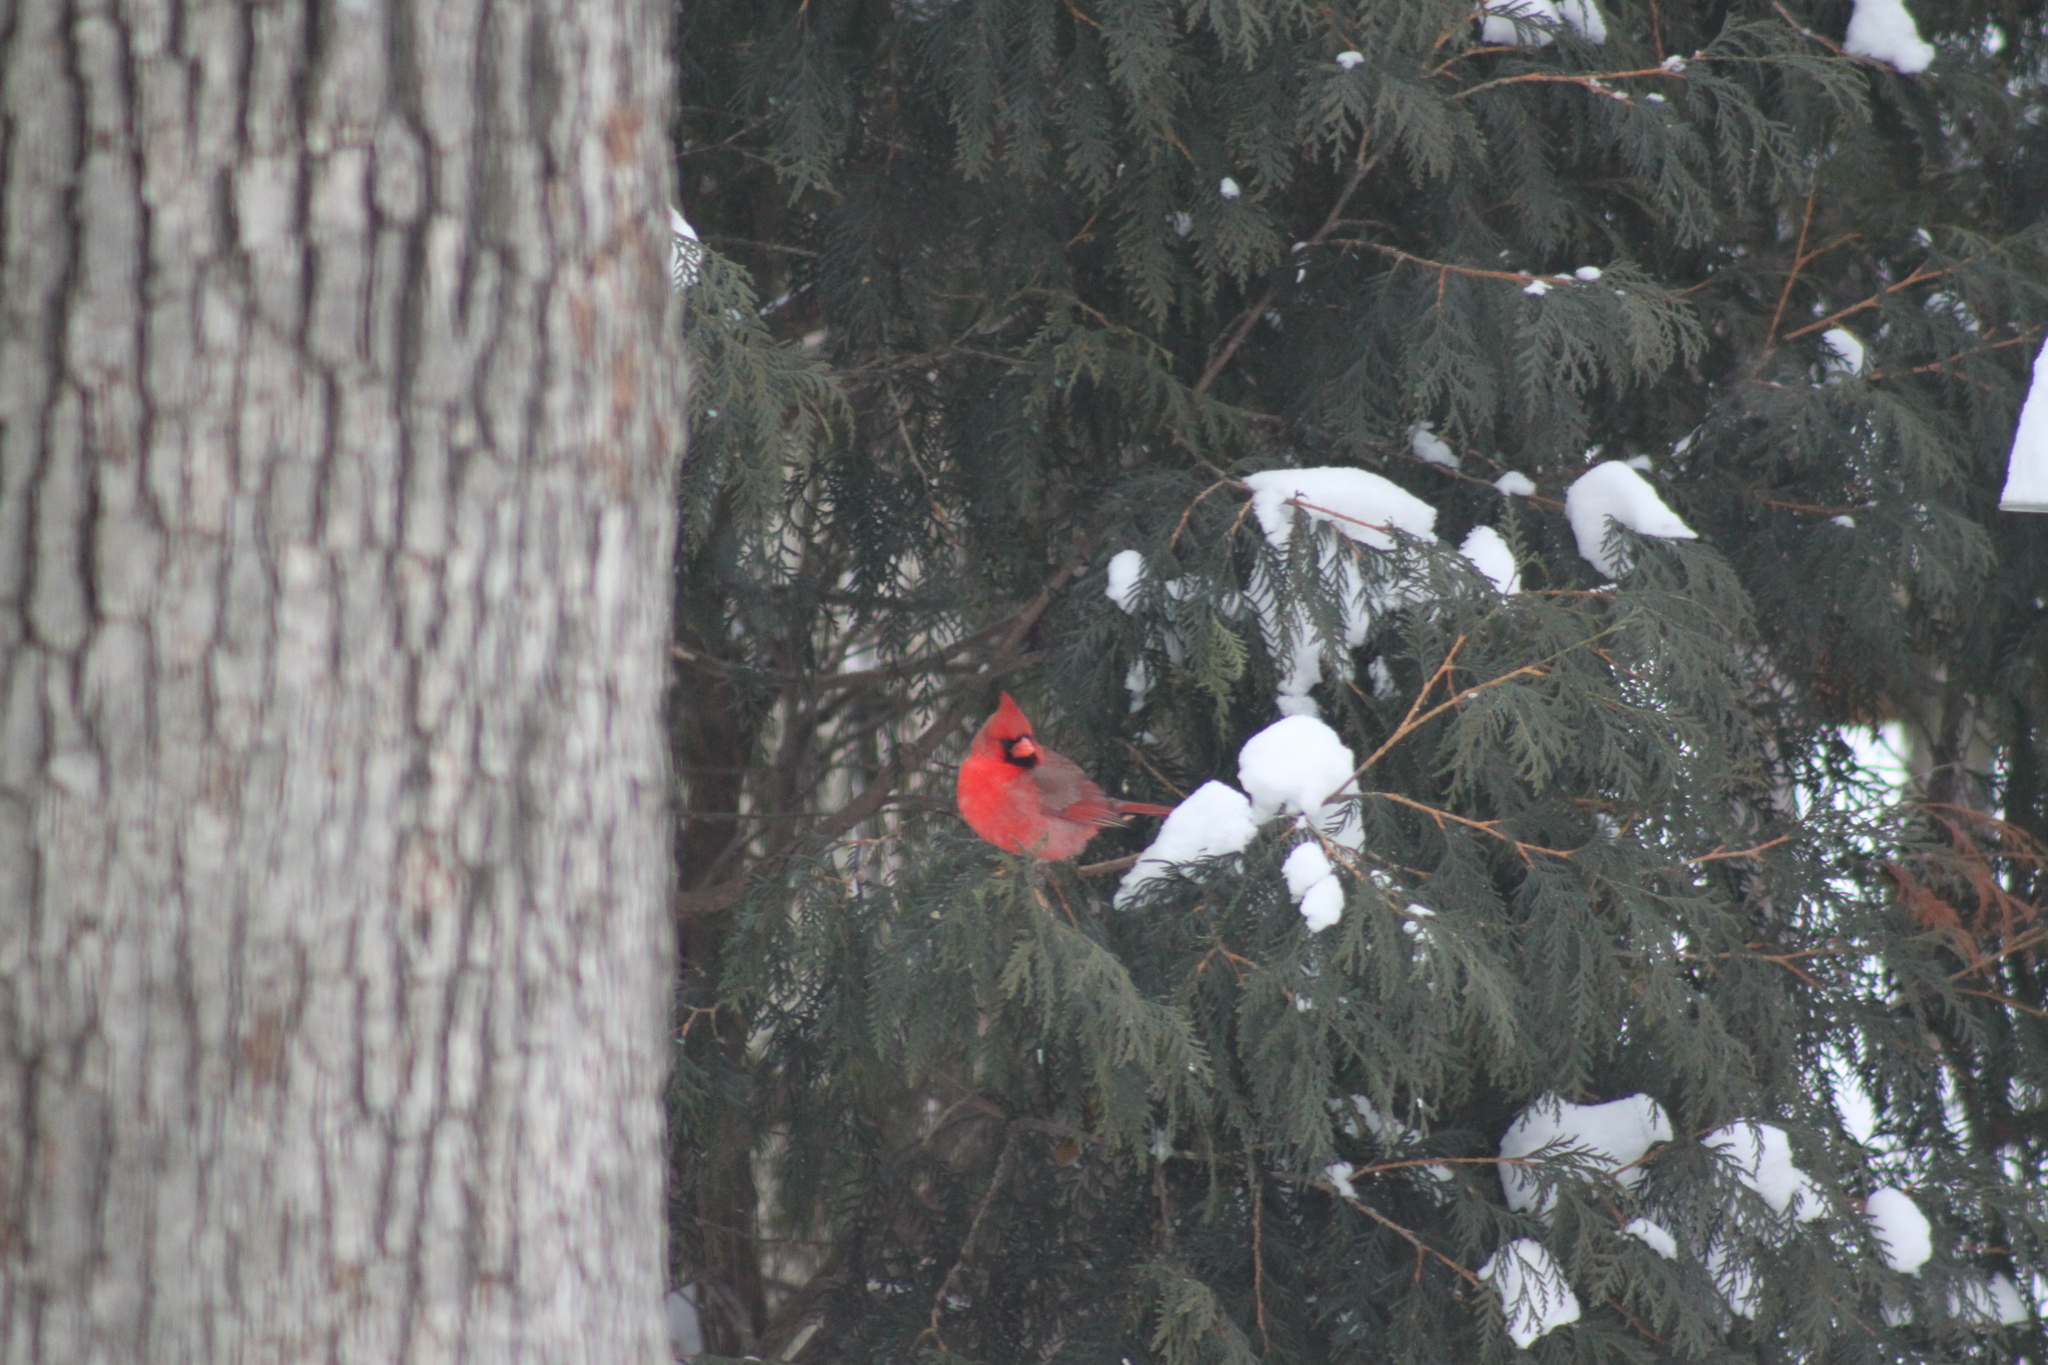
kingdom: Animalia
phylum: Chordata
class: Aves
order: Passeriformes
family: Cardinalidae
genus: Cardinalis
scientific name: Cardinalis cardinalis
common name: Northern cardinal
